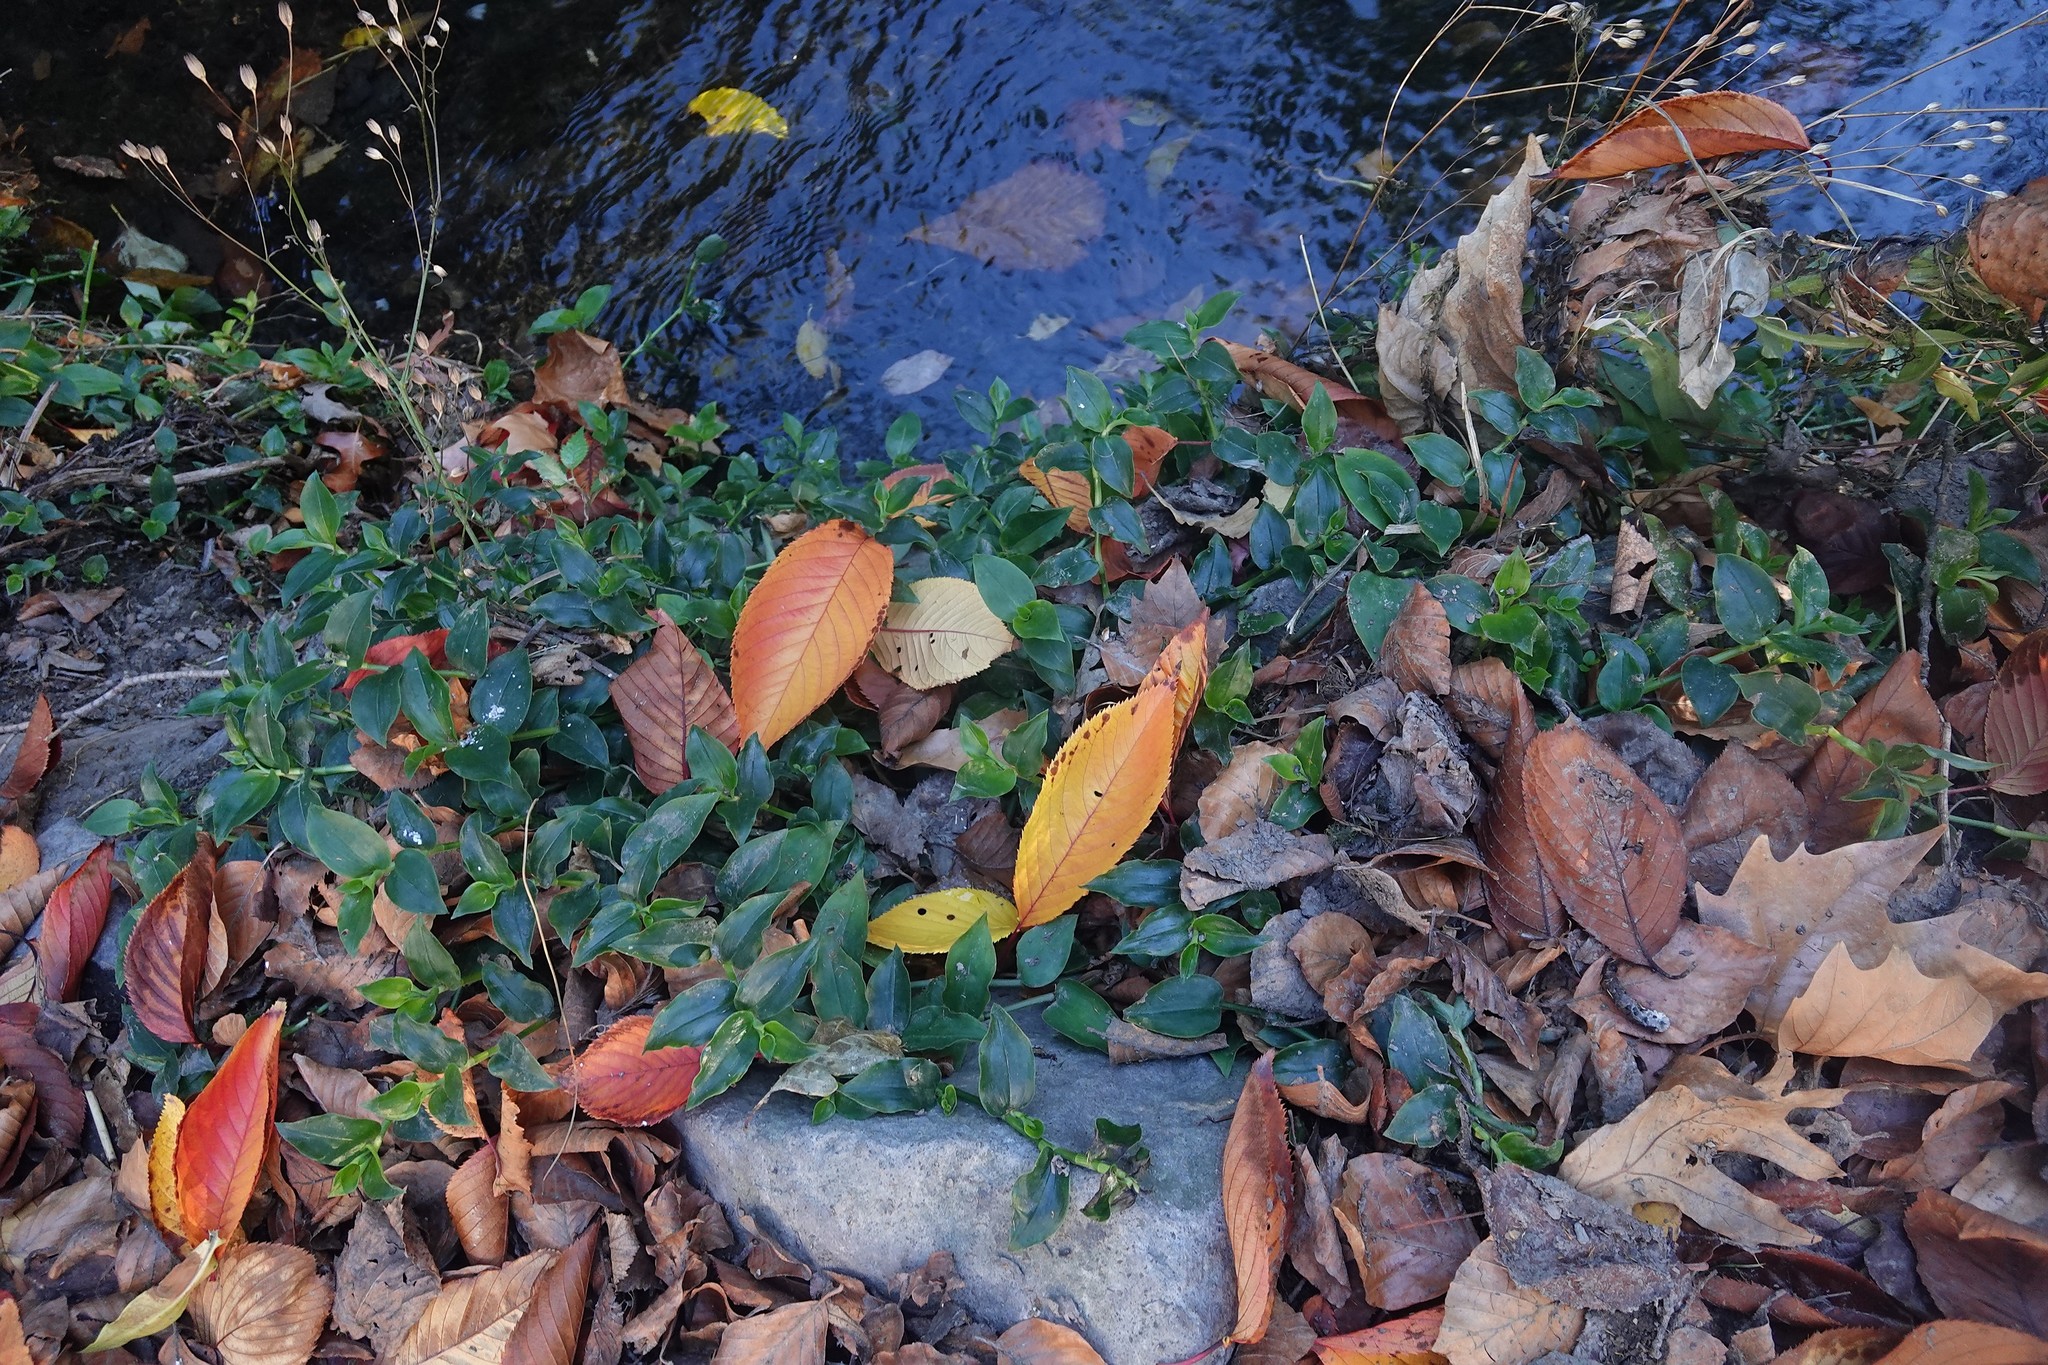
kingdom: Plantae
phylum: Tracheophyta
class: Liliopsida
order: Commelinales
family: Commelinaceae
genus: Tradescantia
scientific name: Tradescantia fluminensis
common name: Wandering-jew
